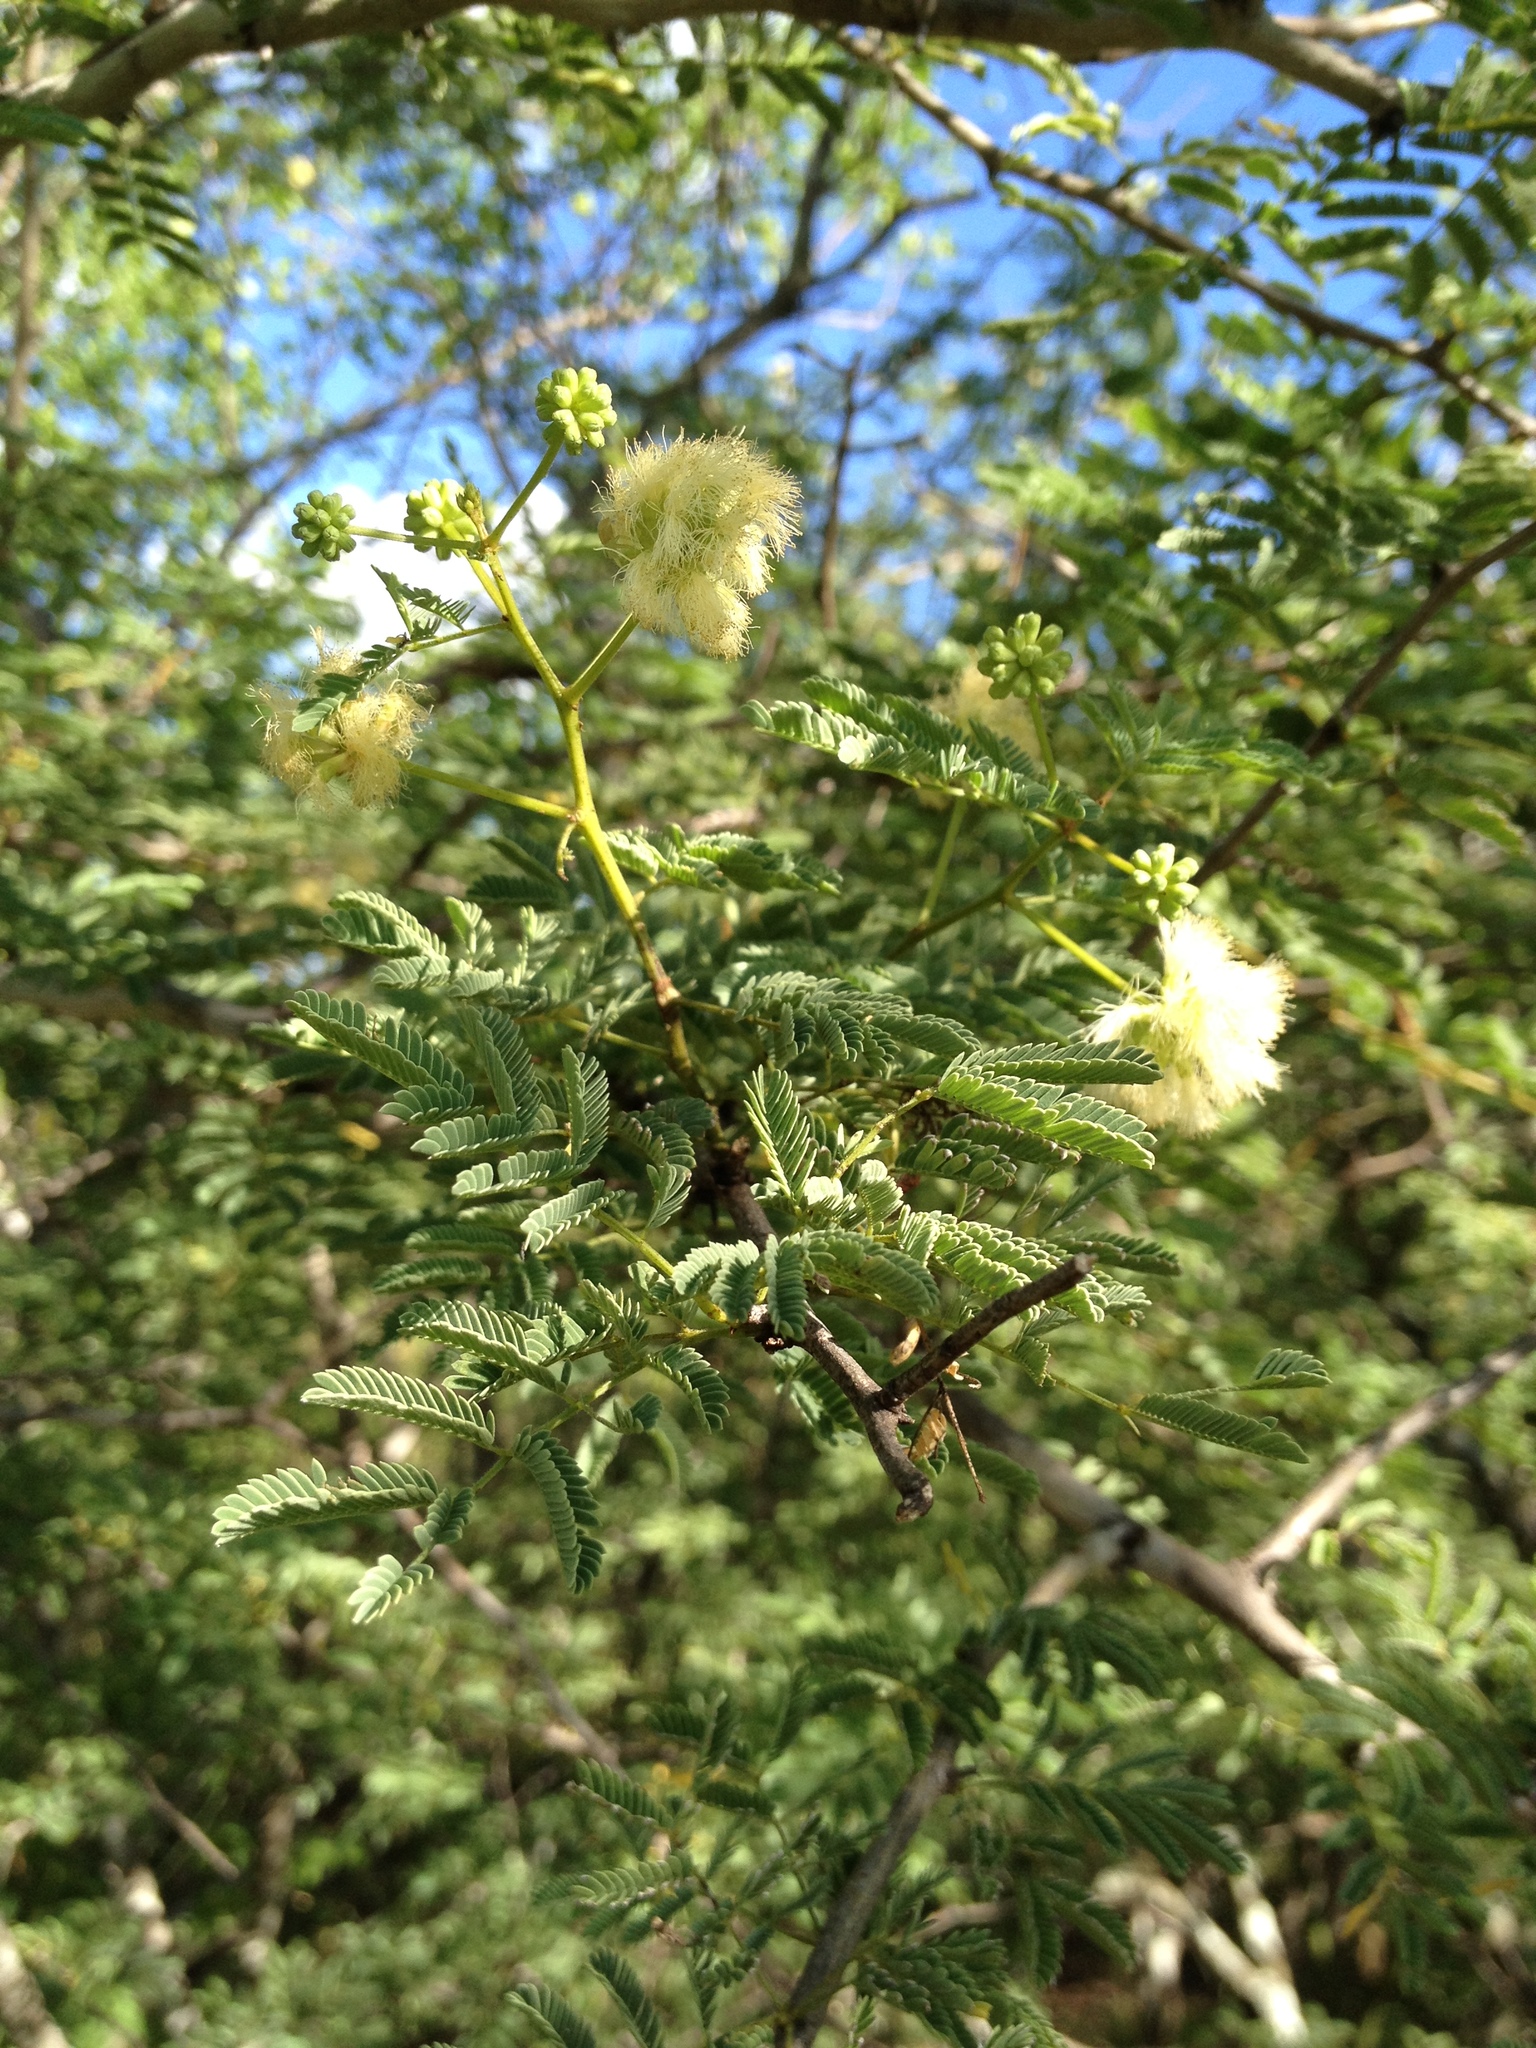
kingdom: Plantae
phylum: Tracheophyta
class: Magnoliopsida
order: Fabales
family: Fabaceae
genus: Senegalia
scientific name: Senegalia gilliesii
